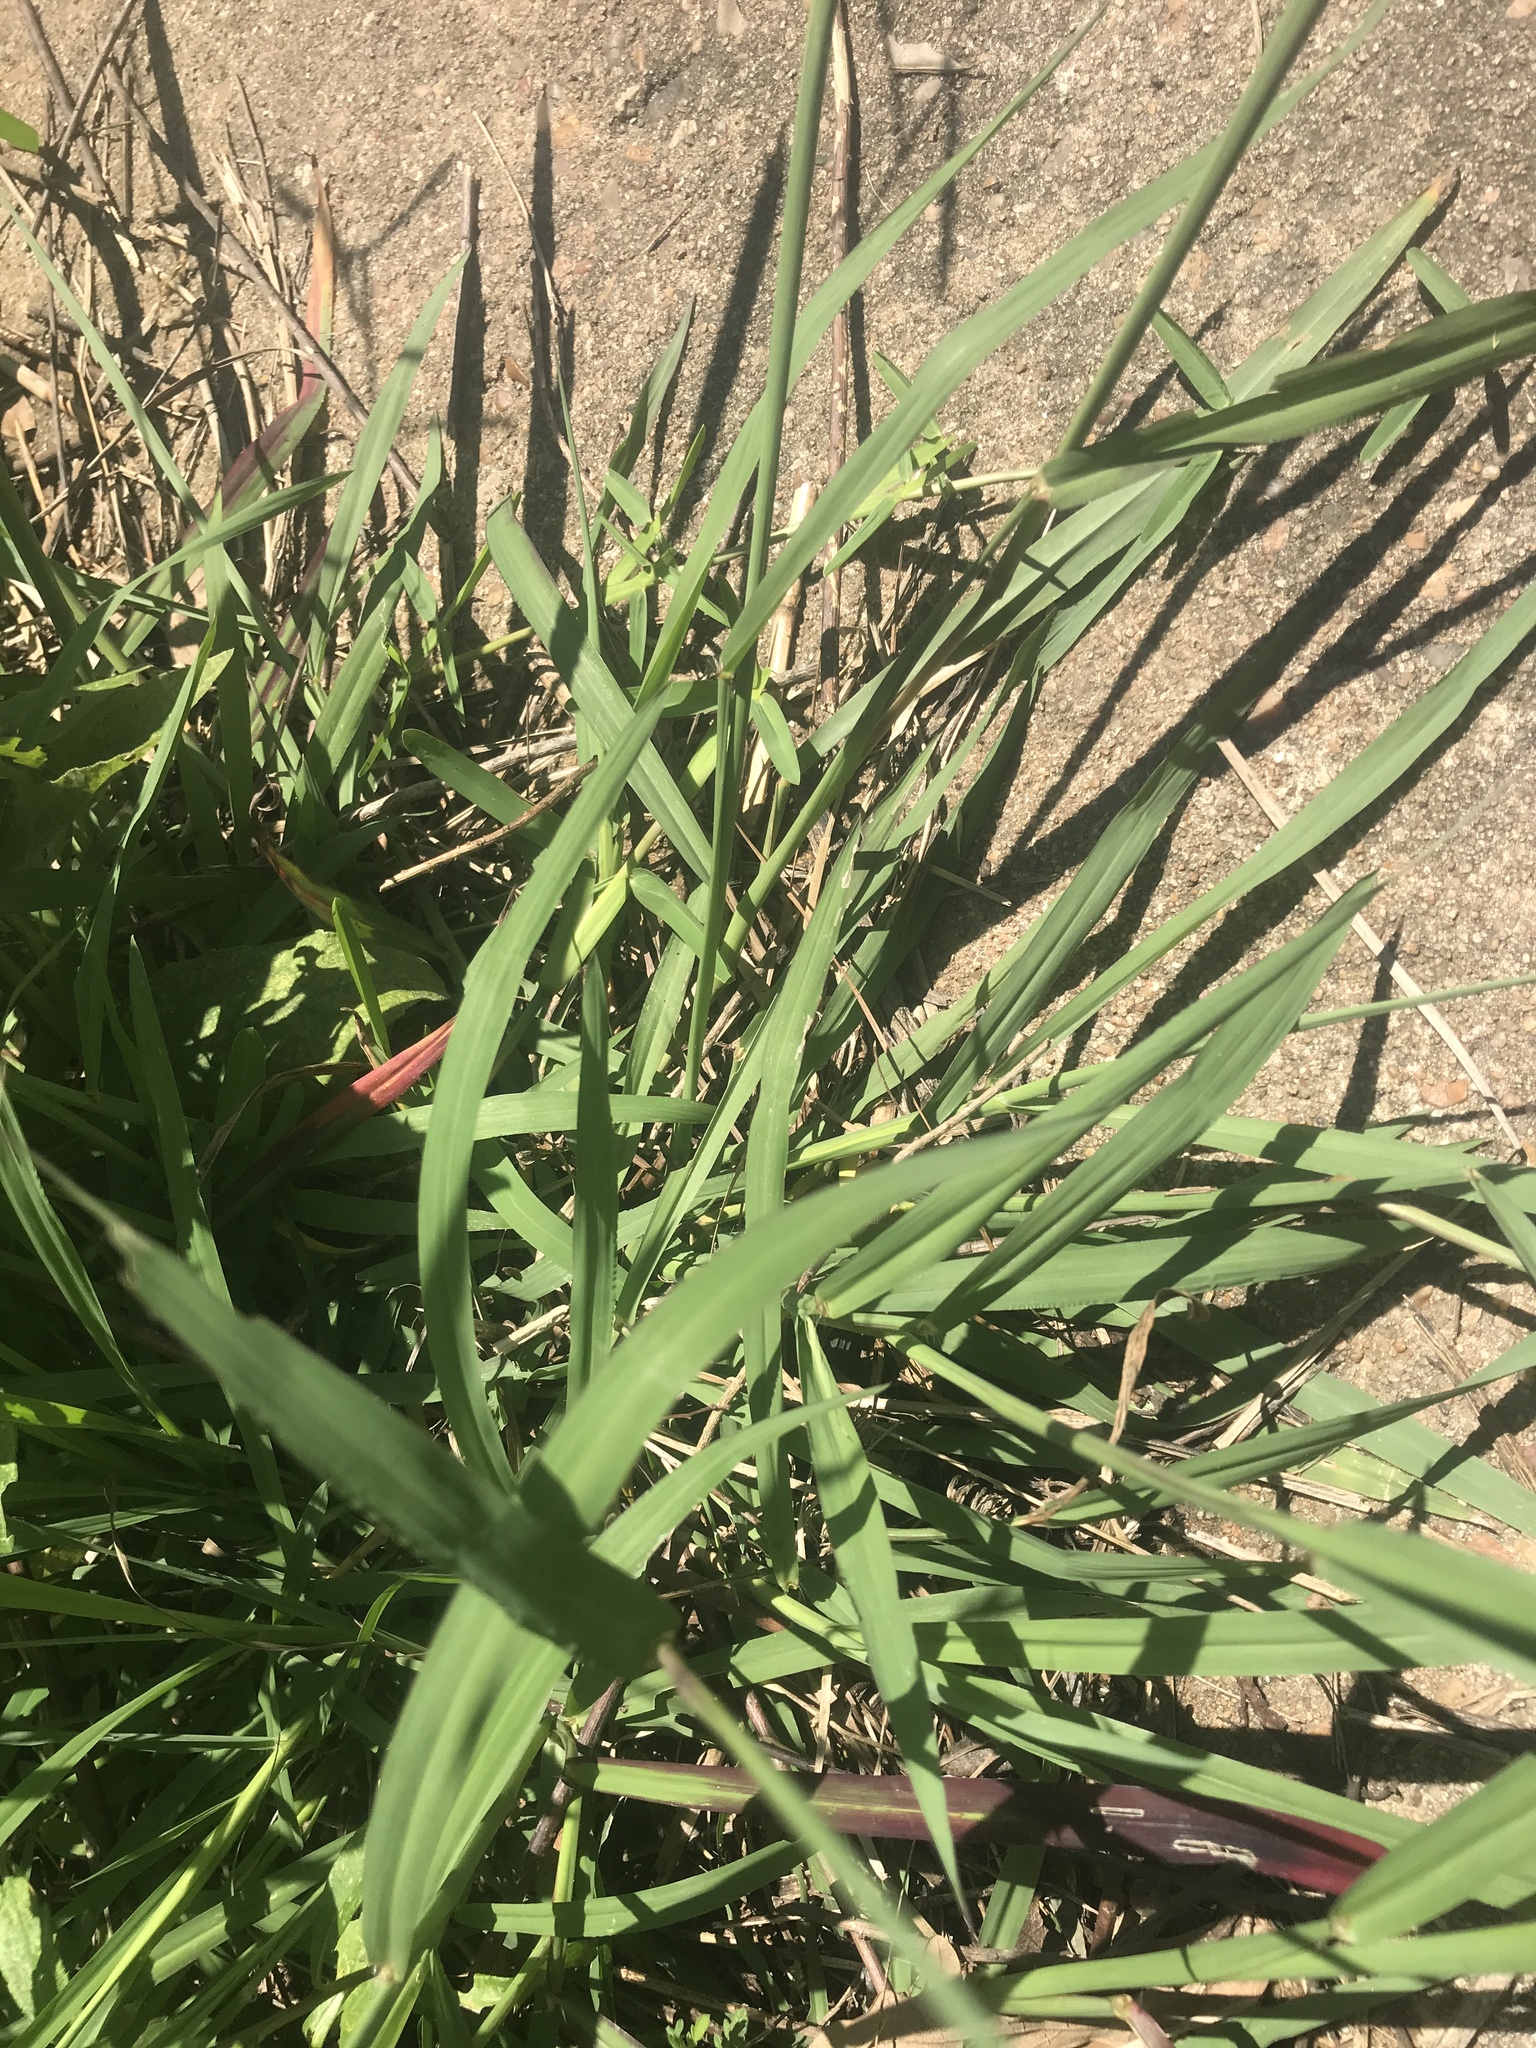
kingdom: Plantae
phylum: Tracheophyta
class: Liliopsida
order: Poales
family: Poaceae
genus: Paspalum
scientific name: Paspalum dilatatum
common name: Dallisgrass
